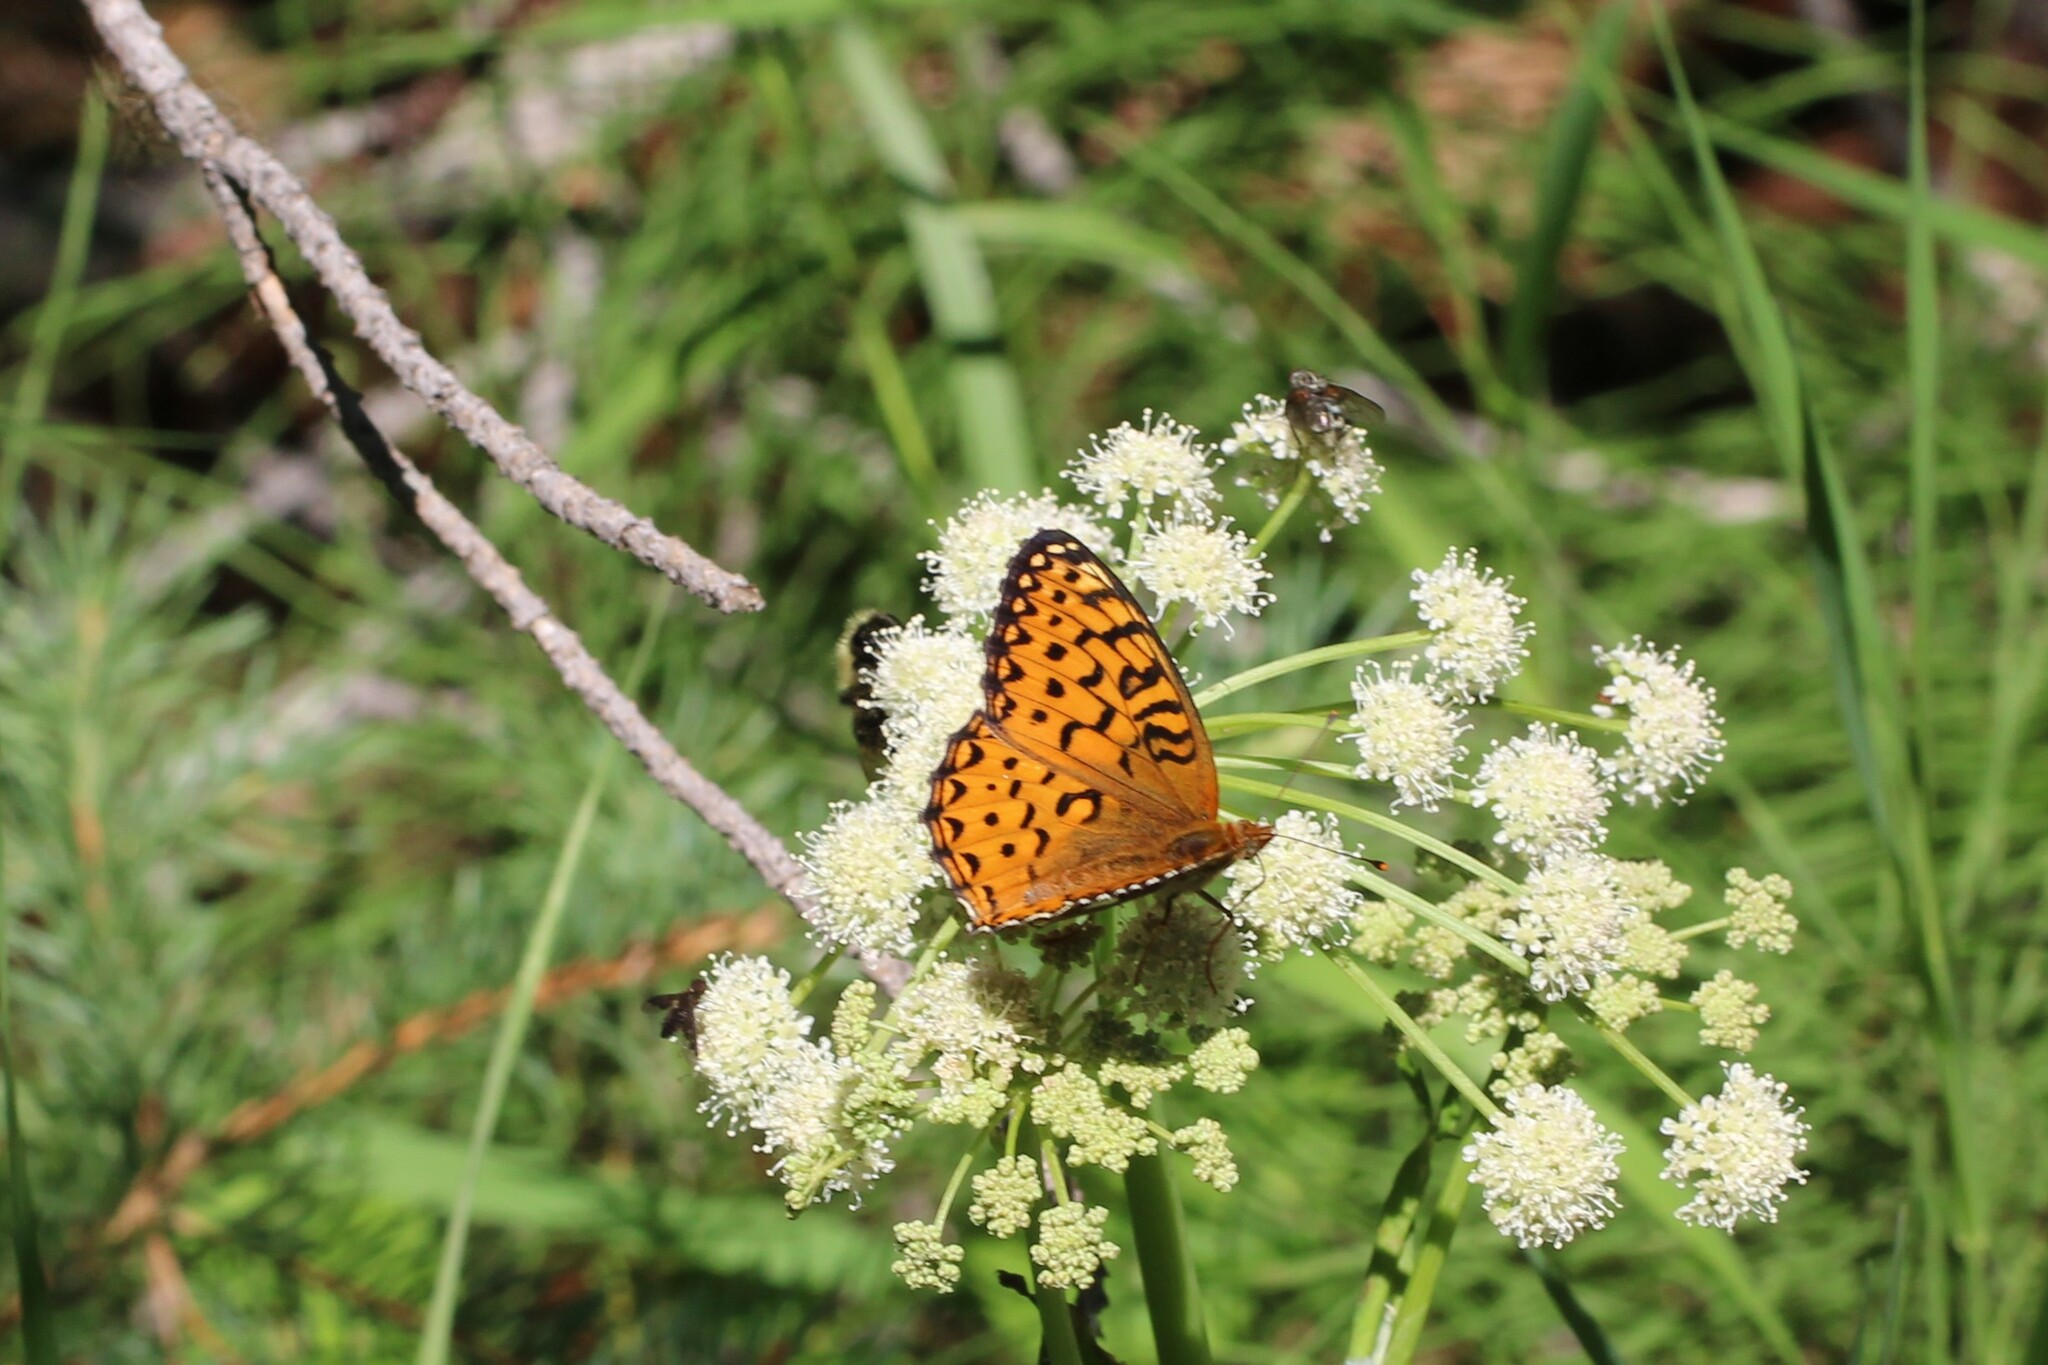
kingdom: Animalia
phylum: Arthropoda
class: Insecta
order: Lepidoptera
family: Nymphalidae
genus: Speyeria
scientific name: Speyeria atlantis
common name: Atlantis fritillary
